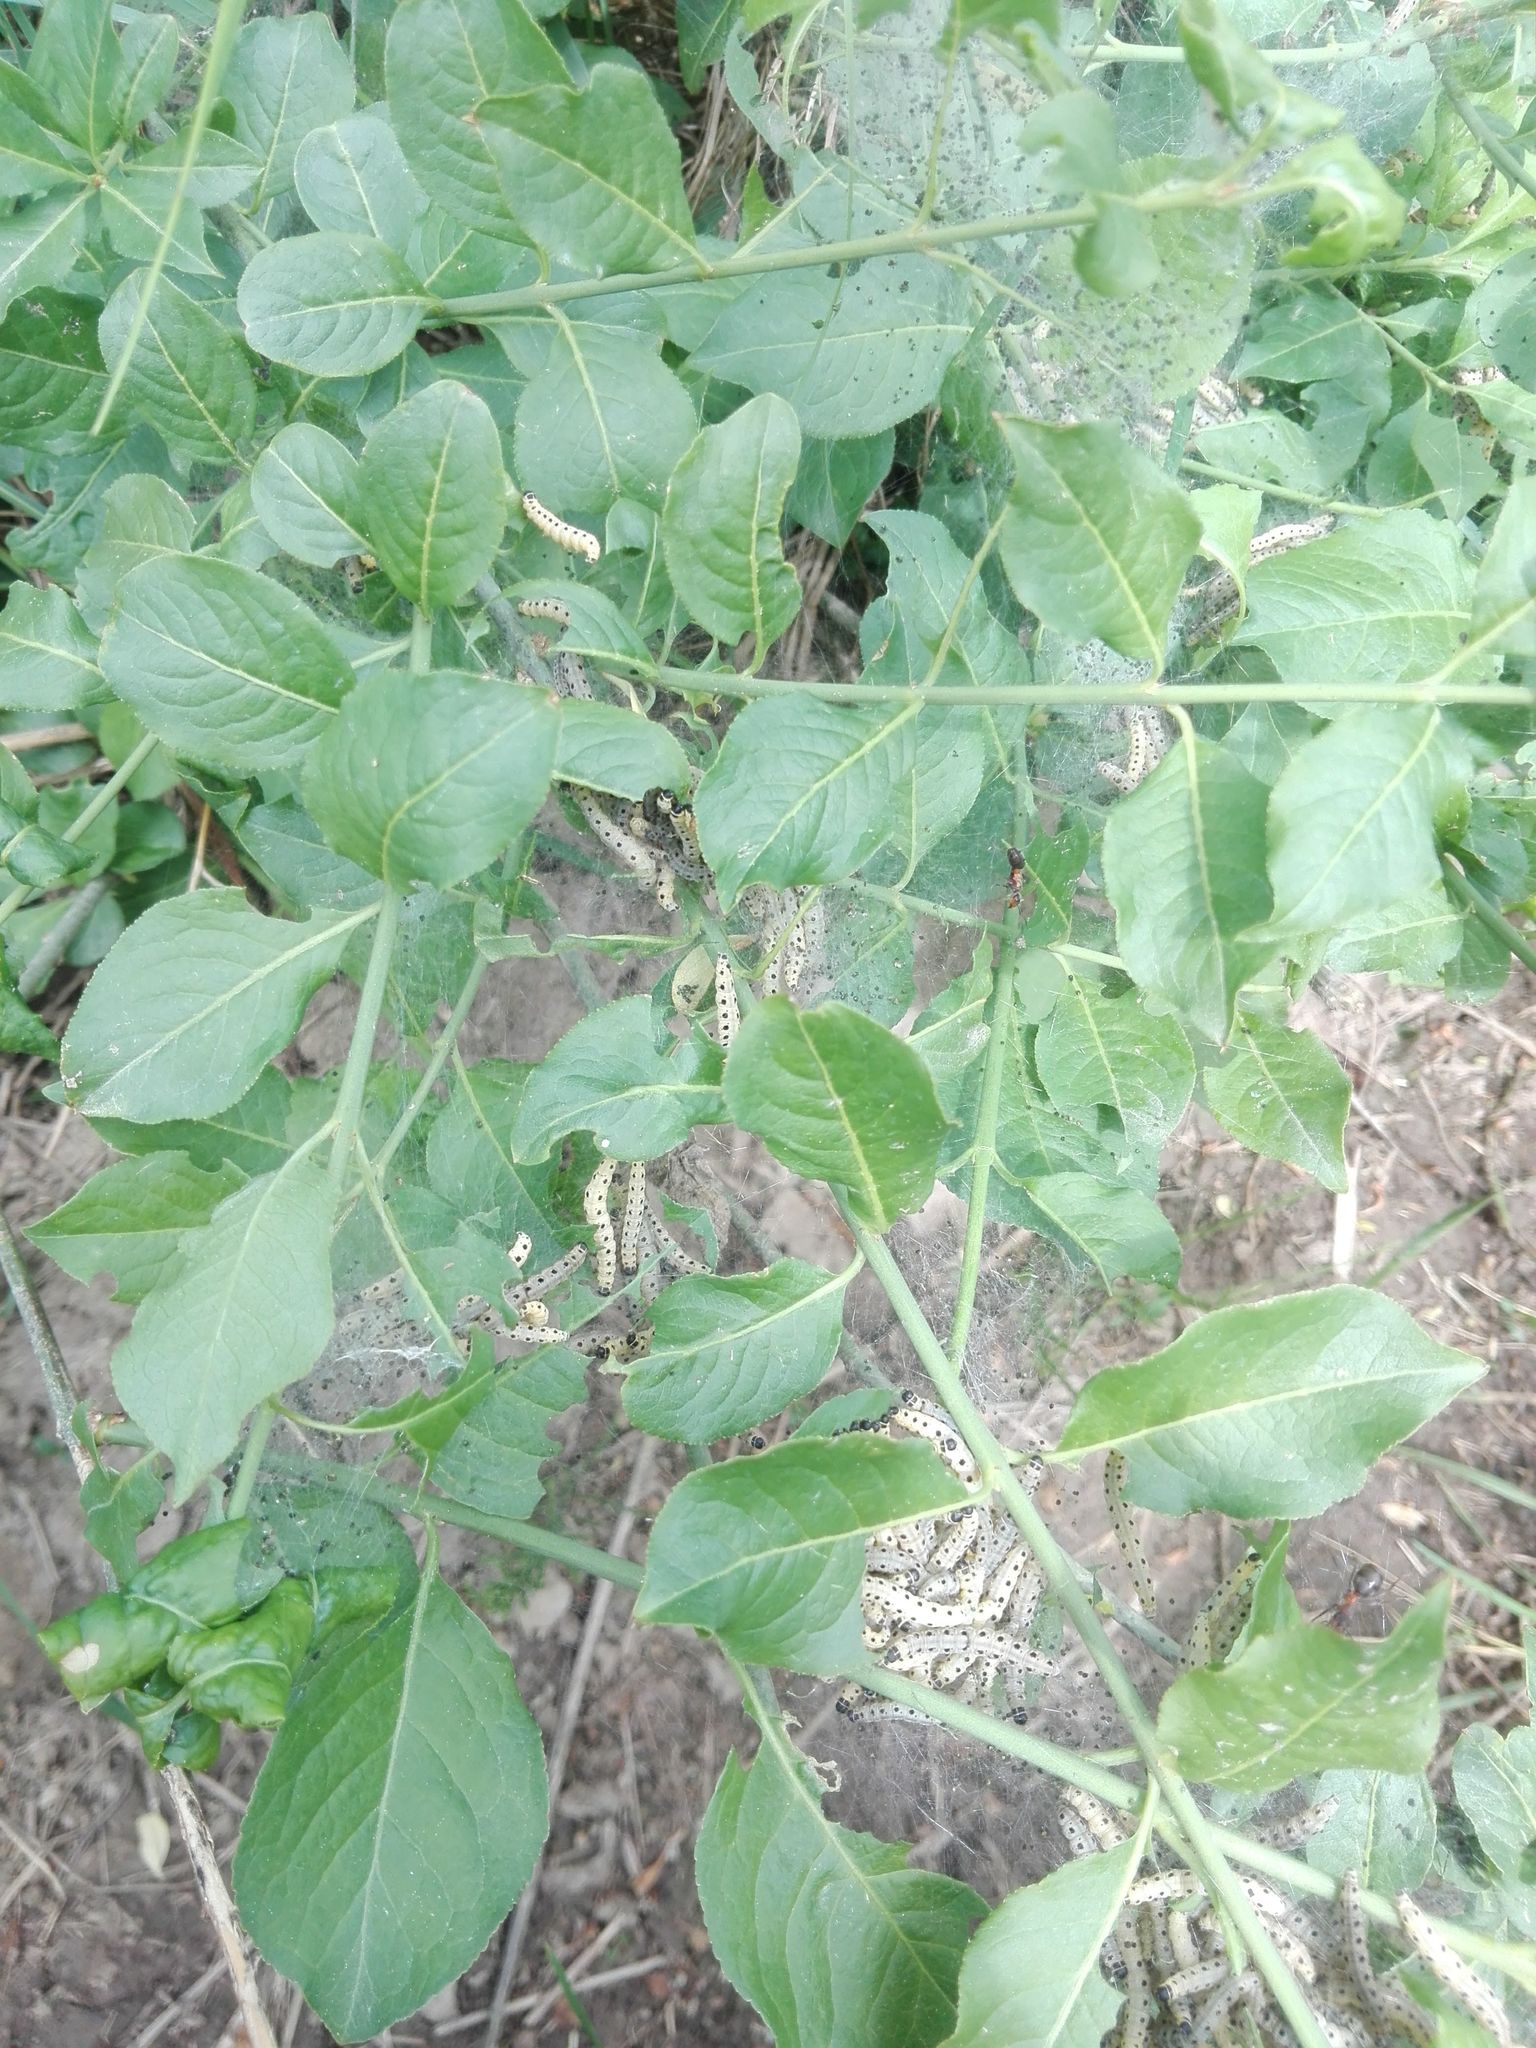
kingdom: Plantae
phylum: Tracheophyta
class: Magnoliopsida
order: Celastrales
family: Celastraceae
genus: Euonymus
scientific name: Euonymus europaeus
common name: Spindle
